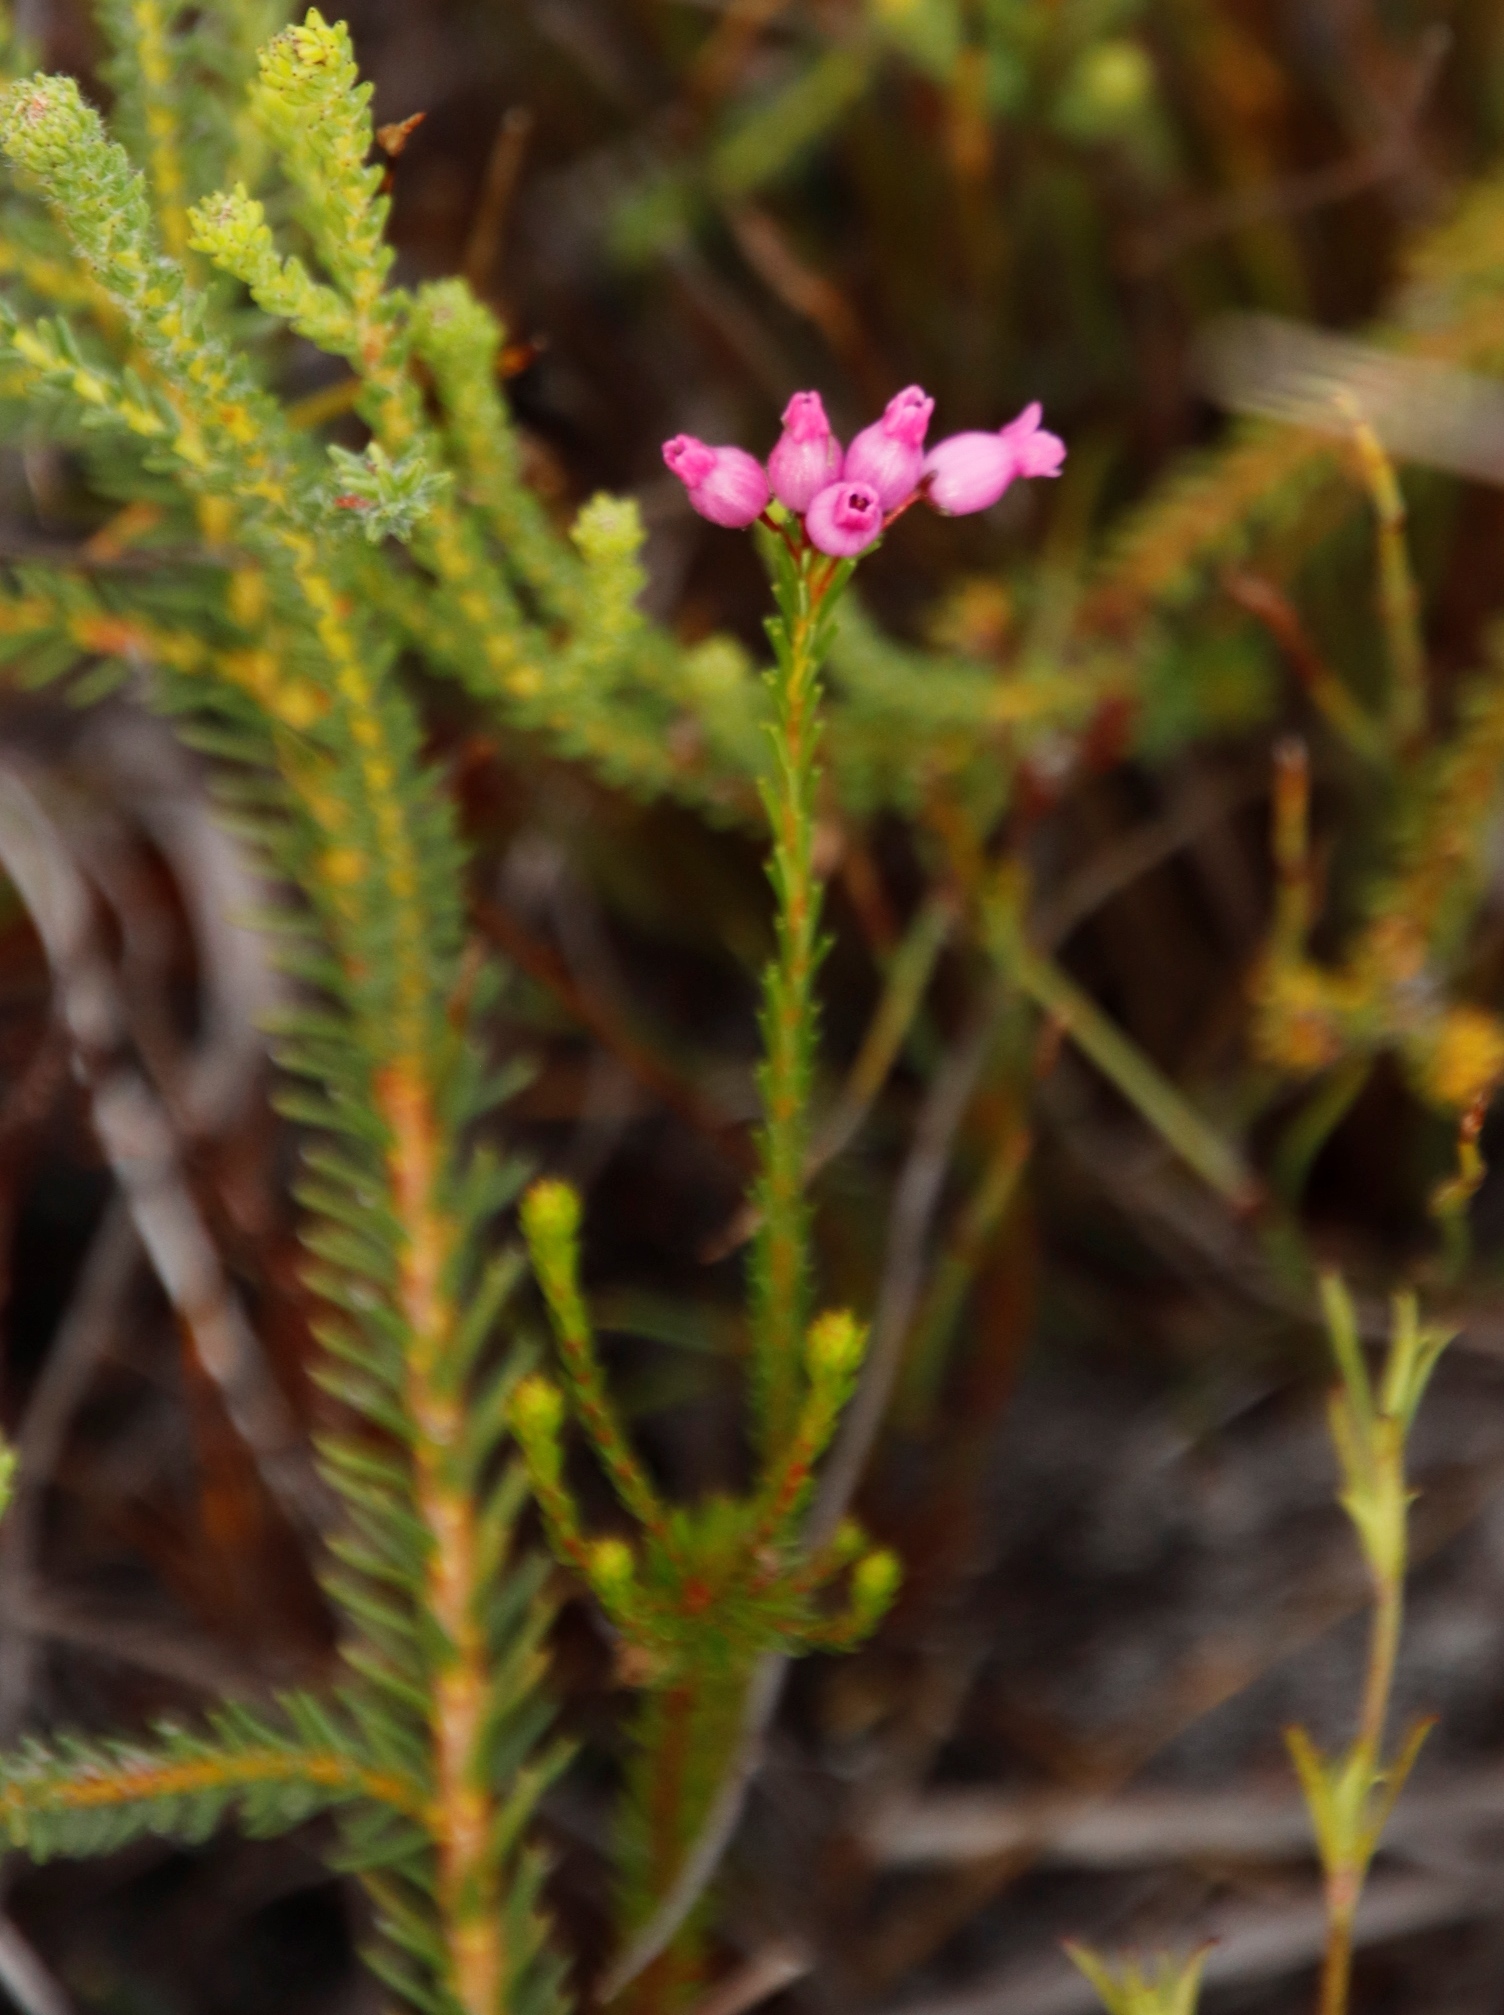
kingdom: Plantae
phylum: Tracheophyta
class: Magnoliopsida
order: Ericales
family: Ericaceae
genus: Erica
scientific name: Erica obliqua
